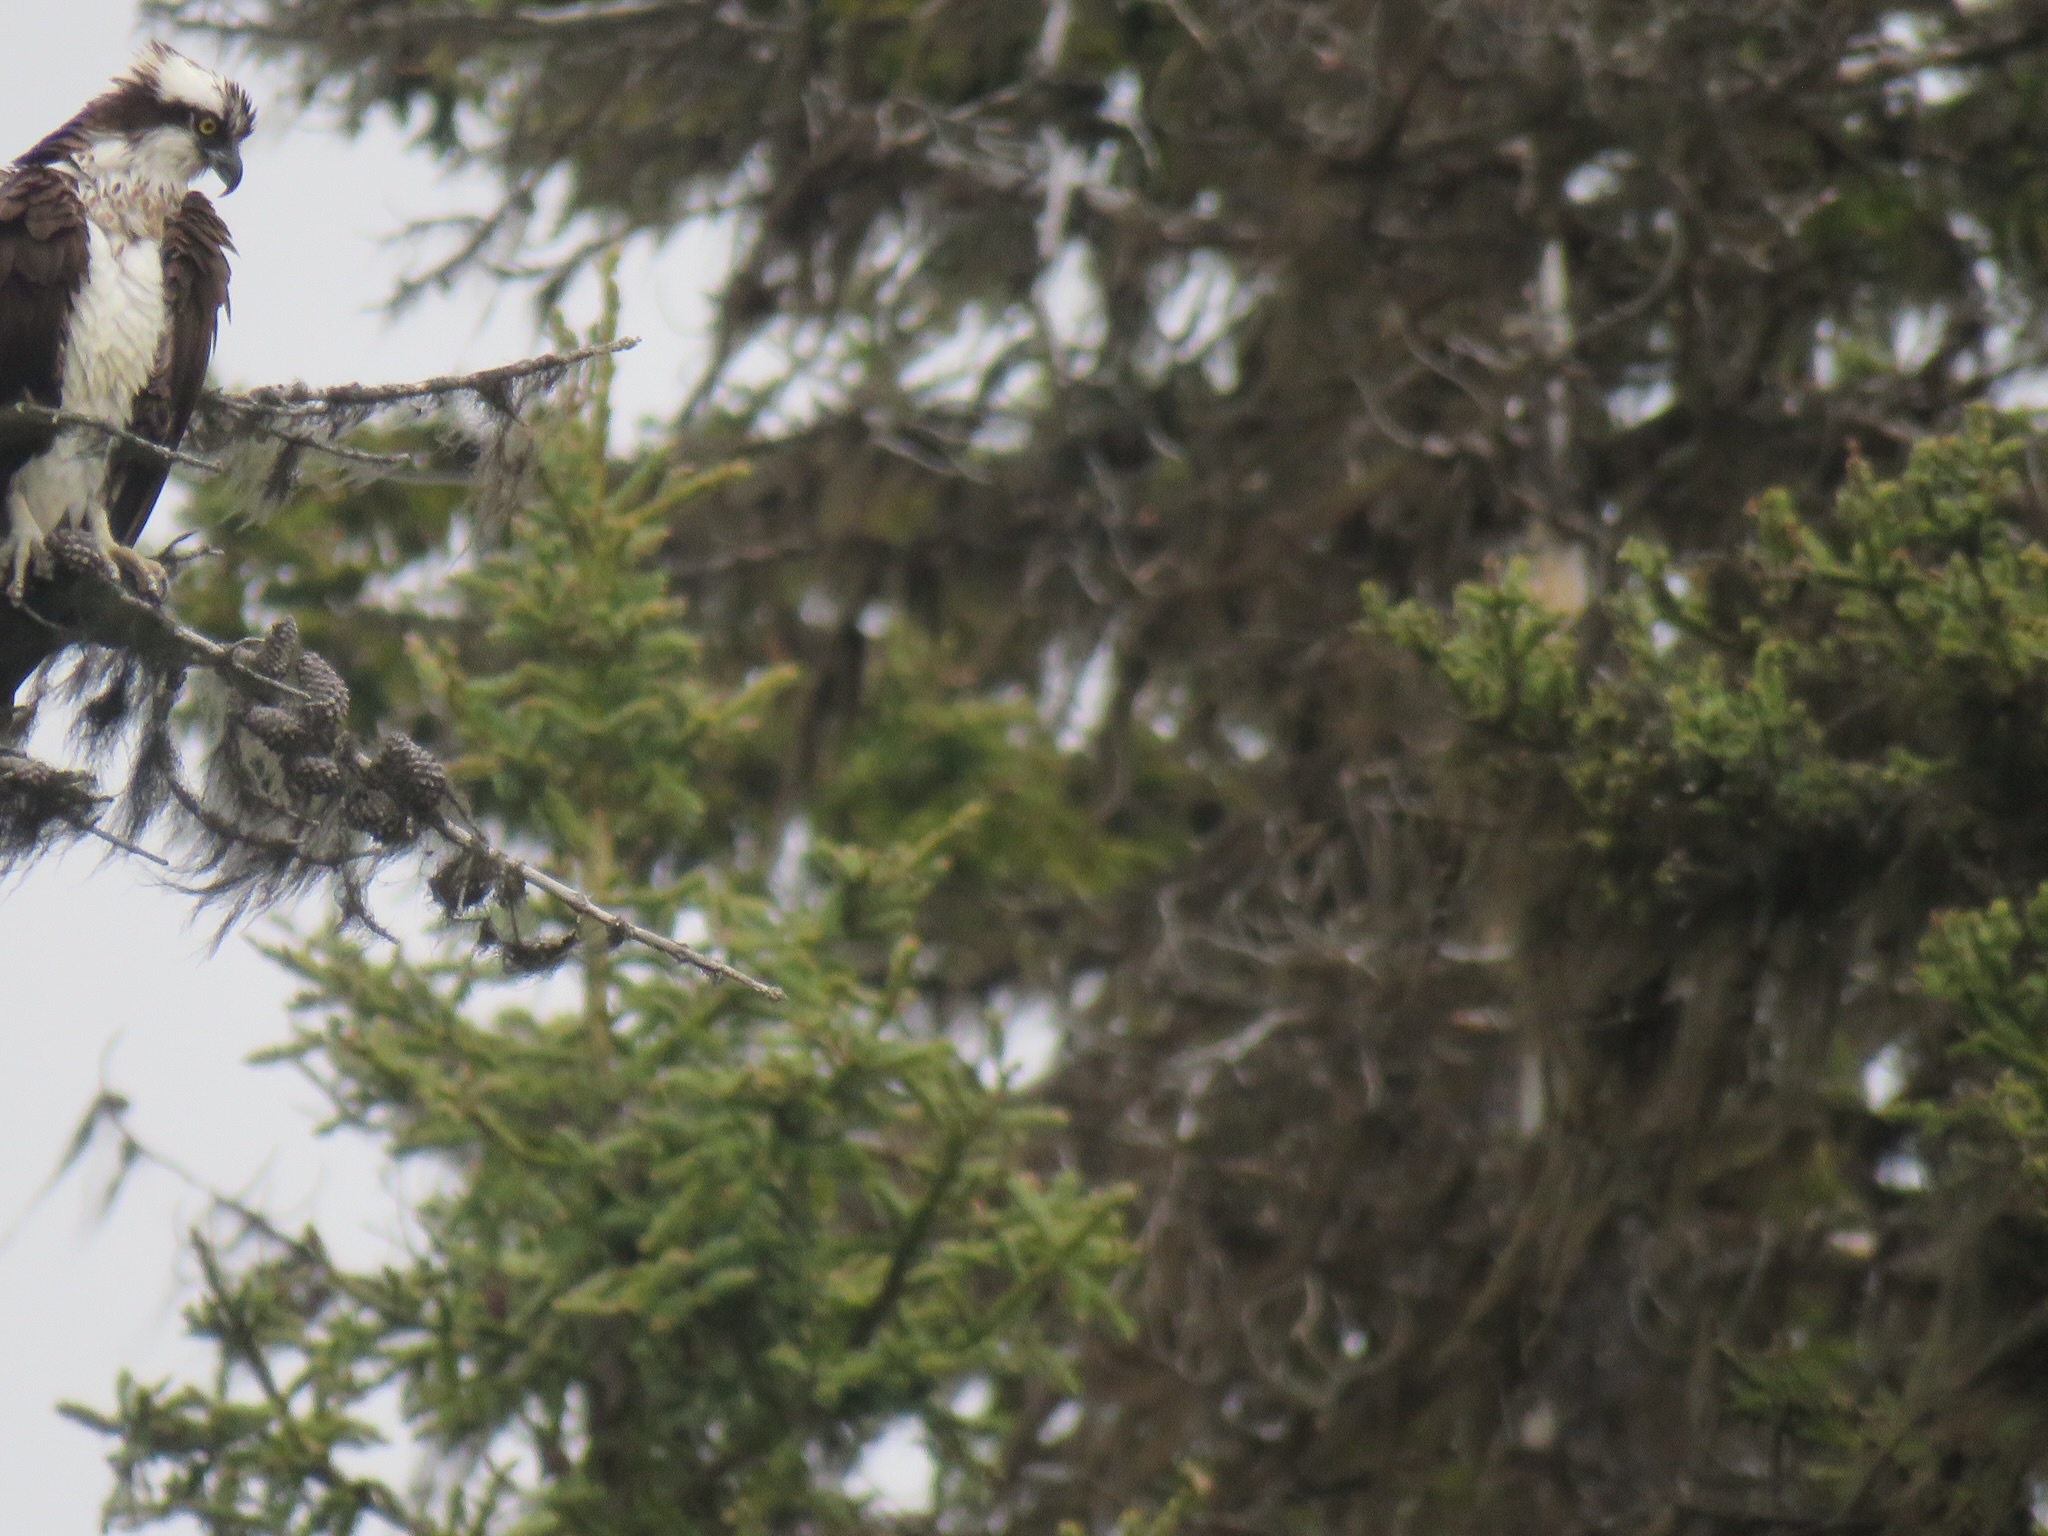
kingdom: Animalia
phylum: Chordata
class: Aves
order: Accipitriformes
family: Pandionidae
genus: Pandion
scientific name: Pandion haliaetus
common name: Osprey
